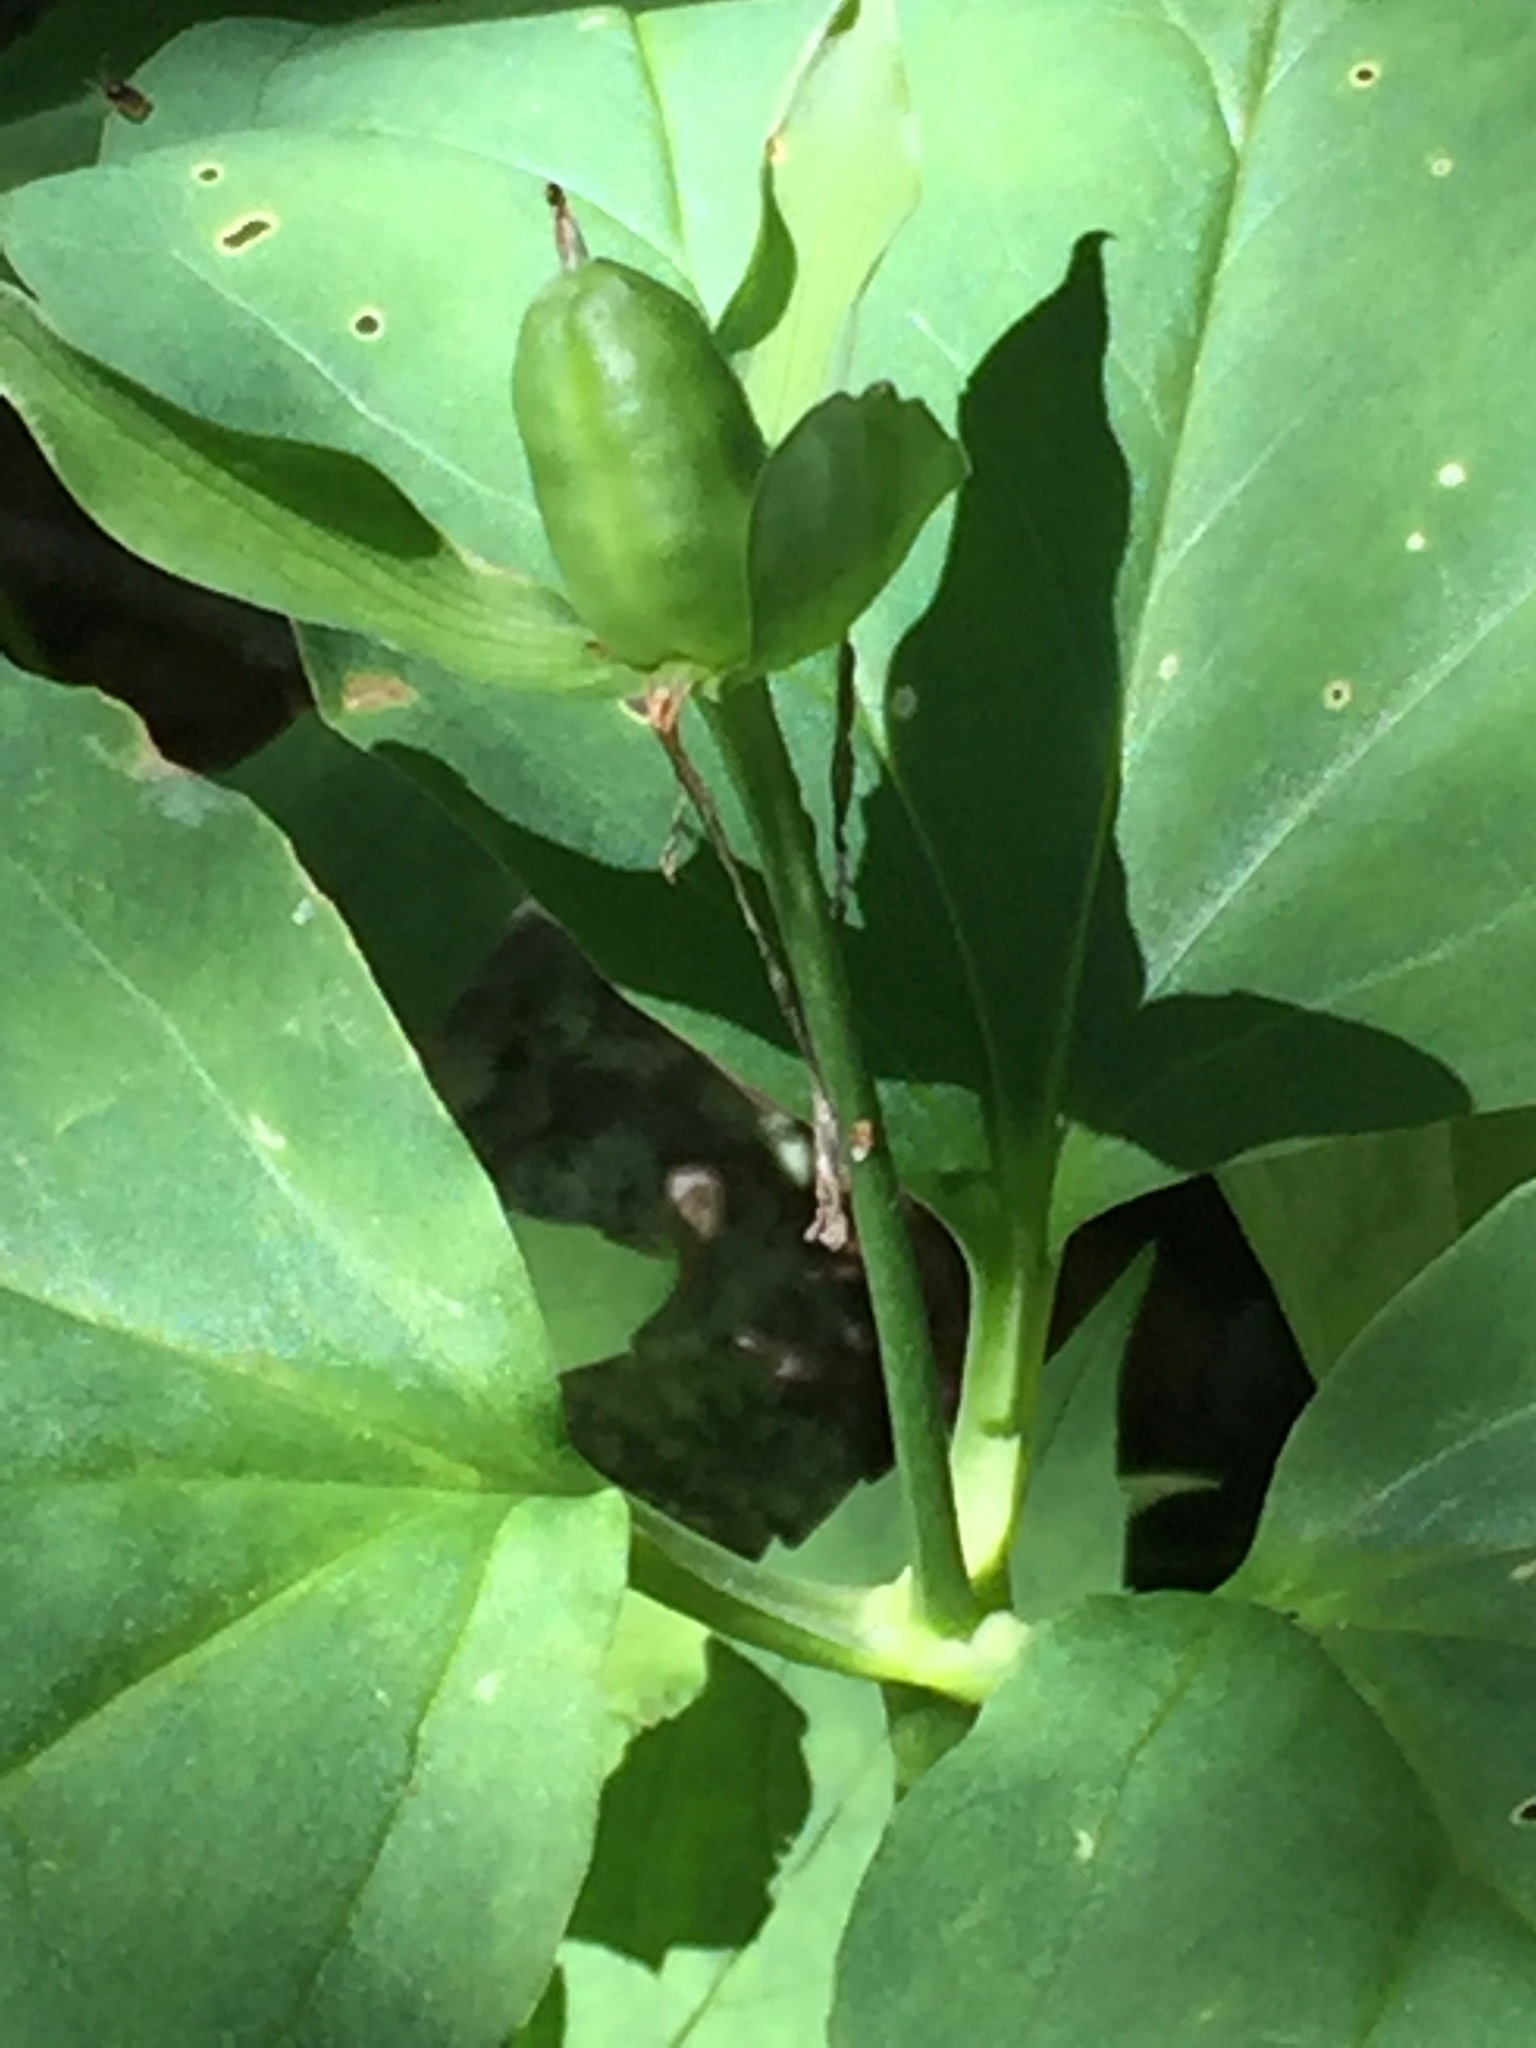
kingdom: Plantae
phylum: Tracheophyta
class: Liliopsida
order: Liliales
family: Melanthiaceae
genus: Trillium
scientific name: Trillium undulatum
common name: Paint trillium
